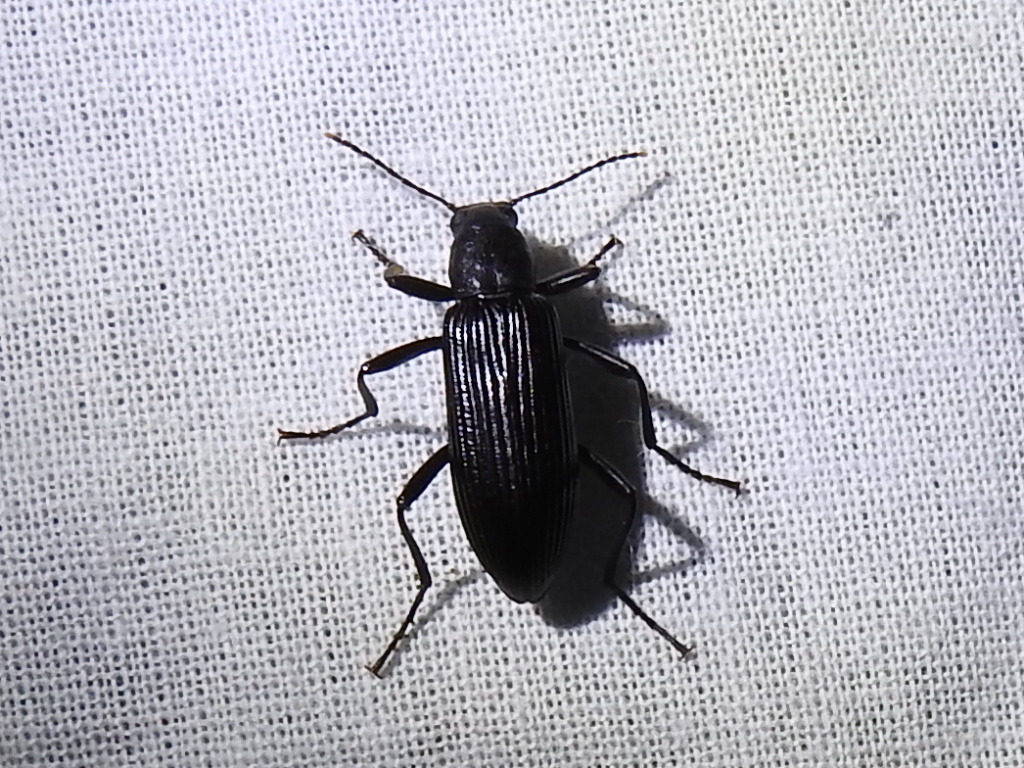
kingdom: Animalia
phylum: Arthropoda
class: Insecta
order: Coleoptera
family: Tenebrionidae
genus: Strongylium
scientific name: Strongylium tenuicolle
